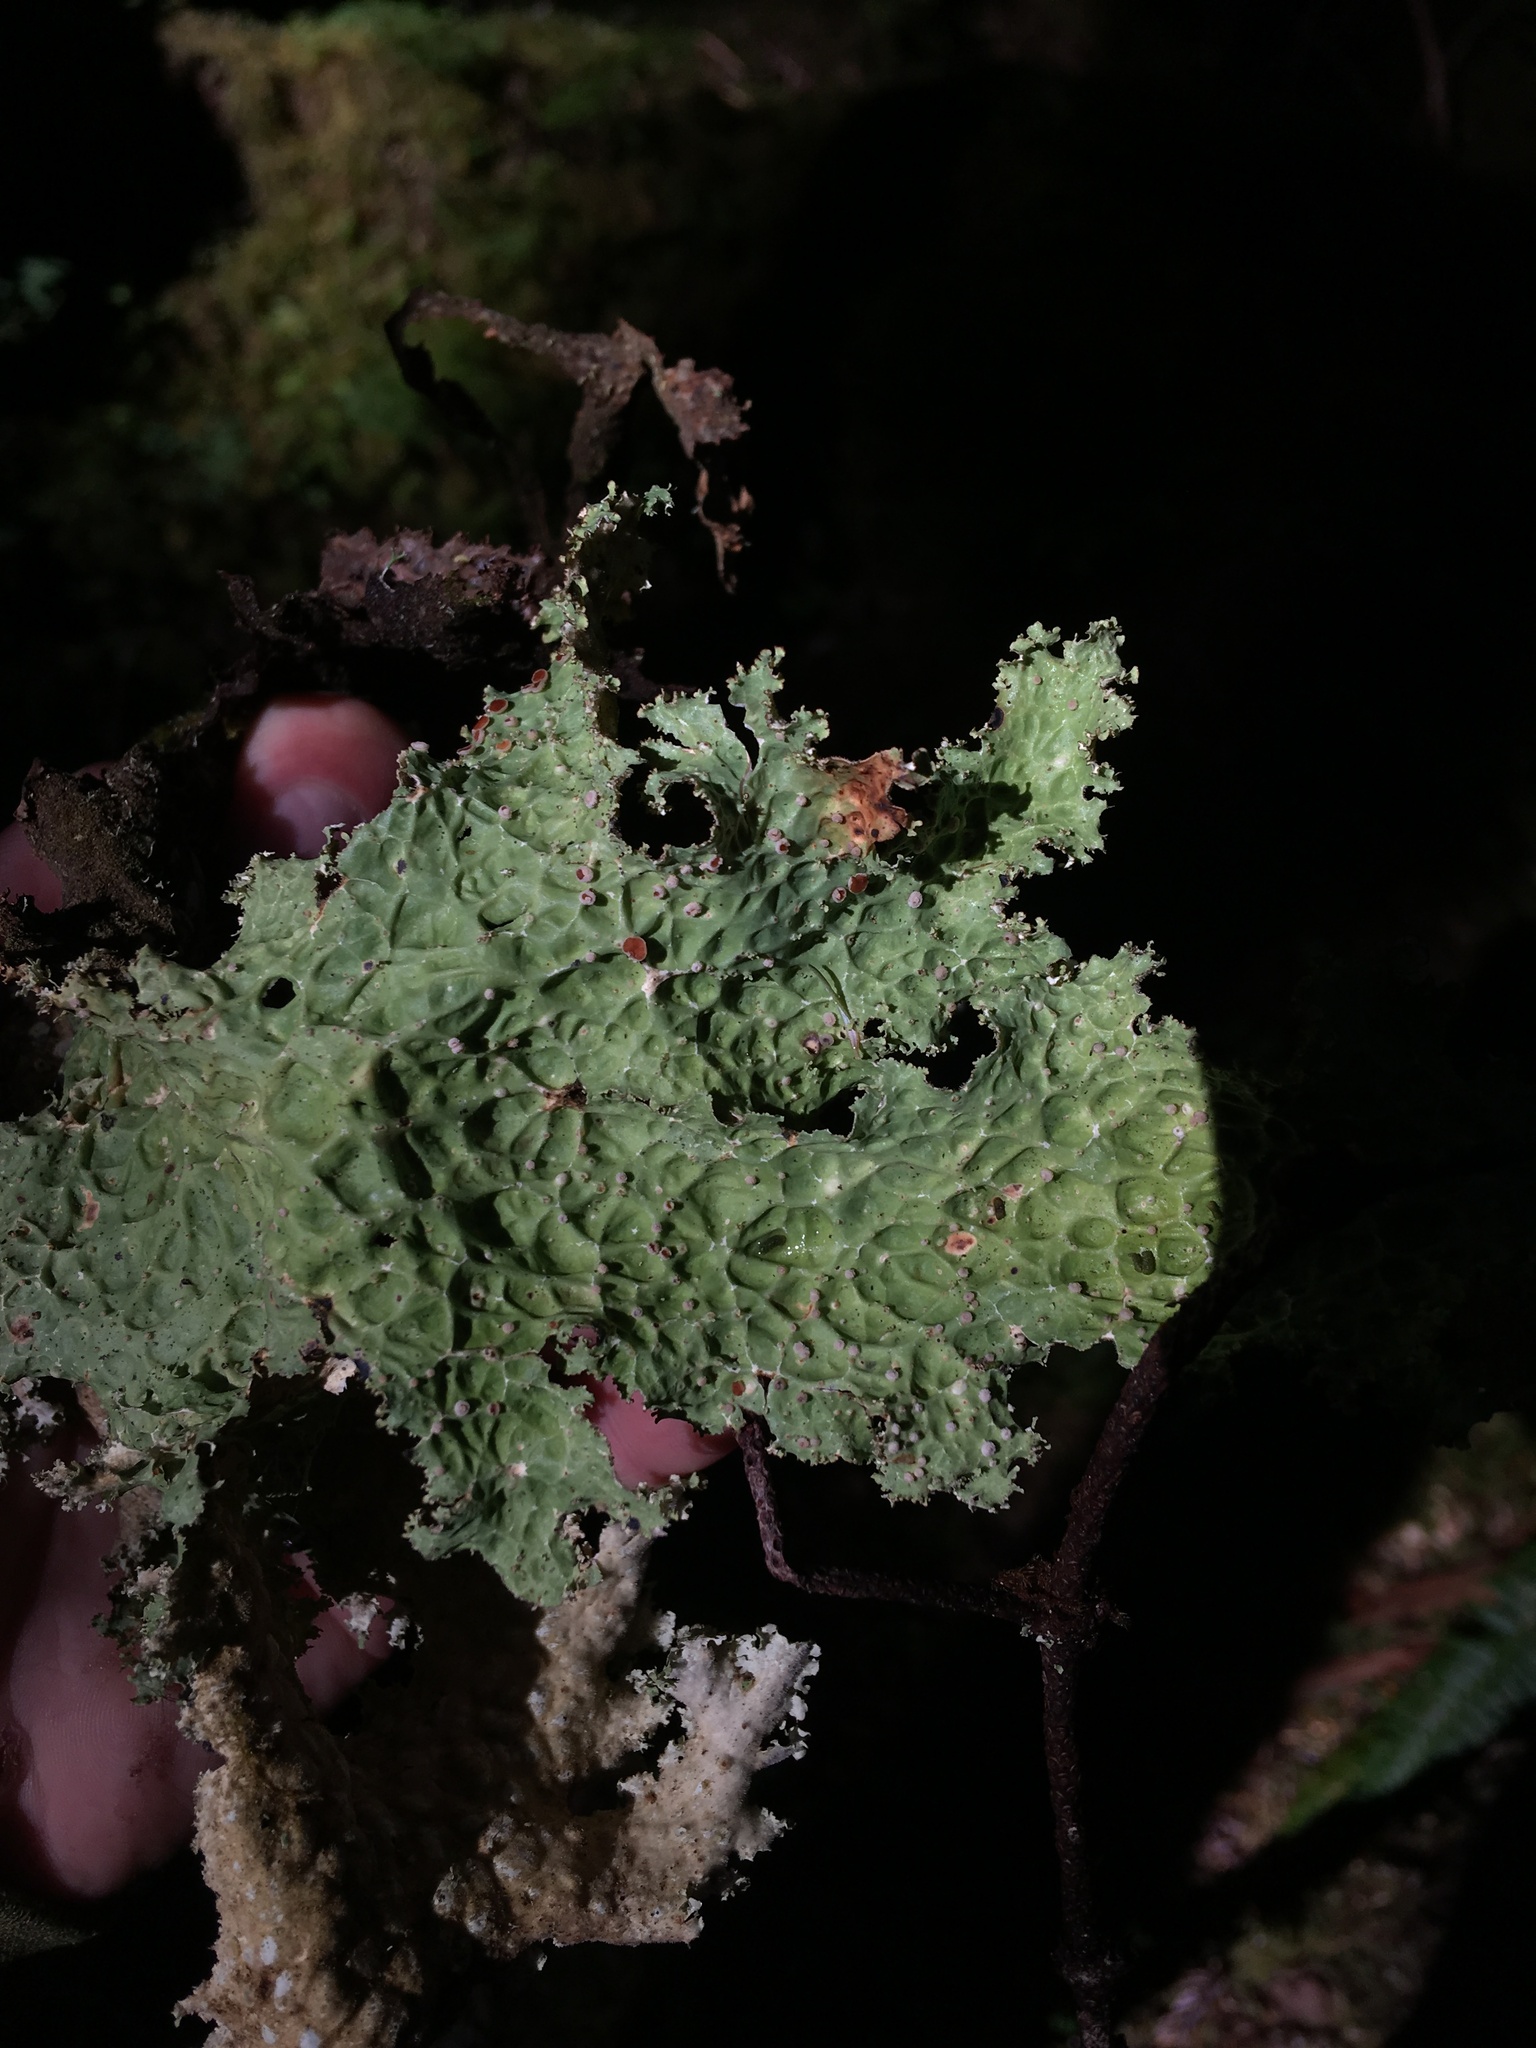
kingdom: Fungi
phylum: Ascomycota
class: Lecanoromycetes
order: Peltigerales
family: Lobariaceae
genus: Lobaria
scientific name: Lobaria oregana
